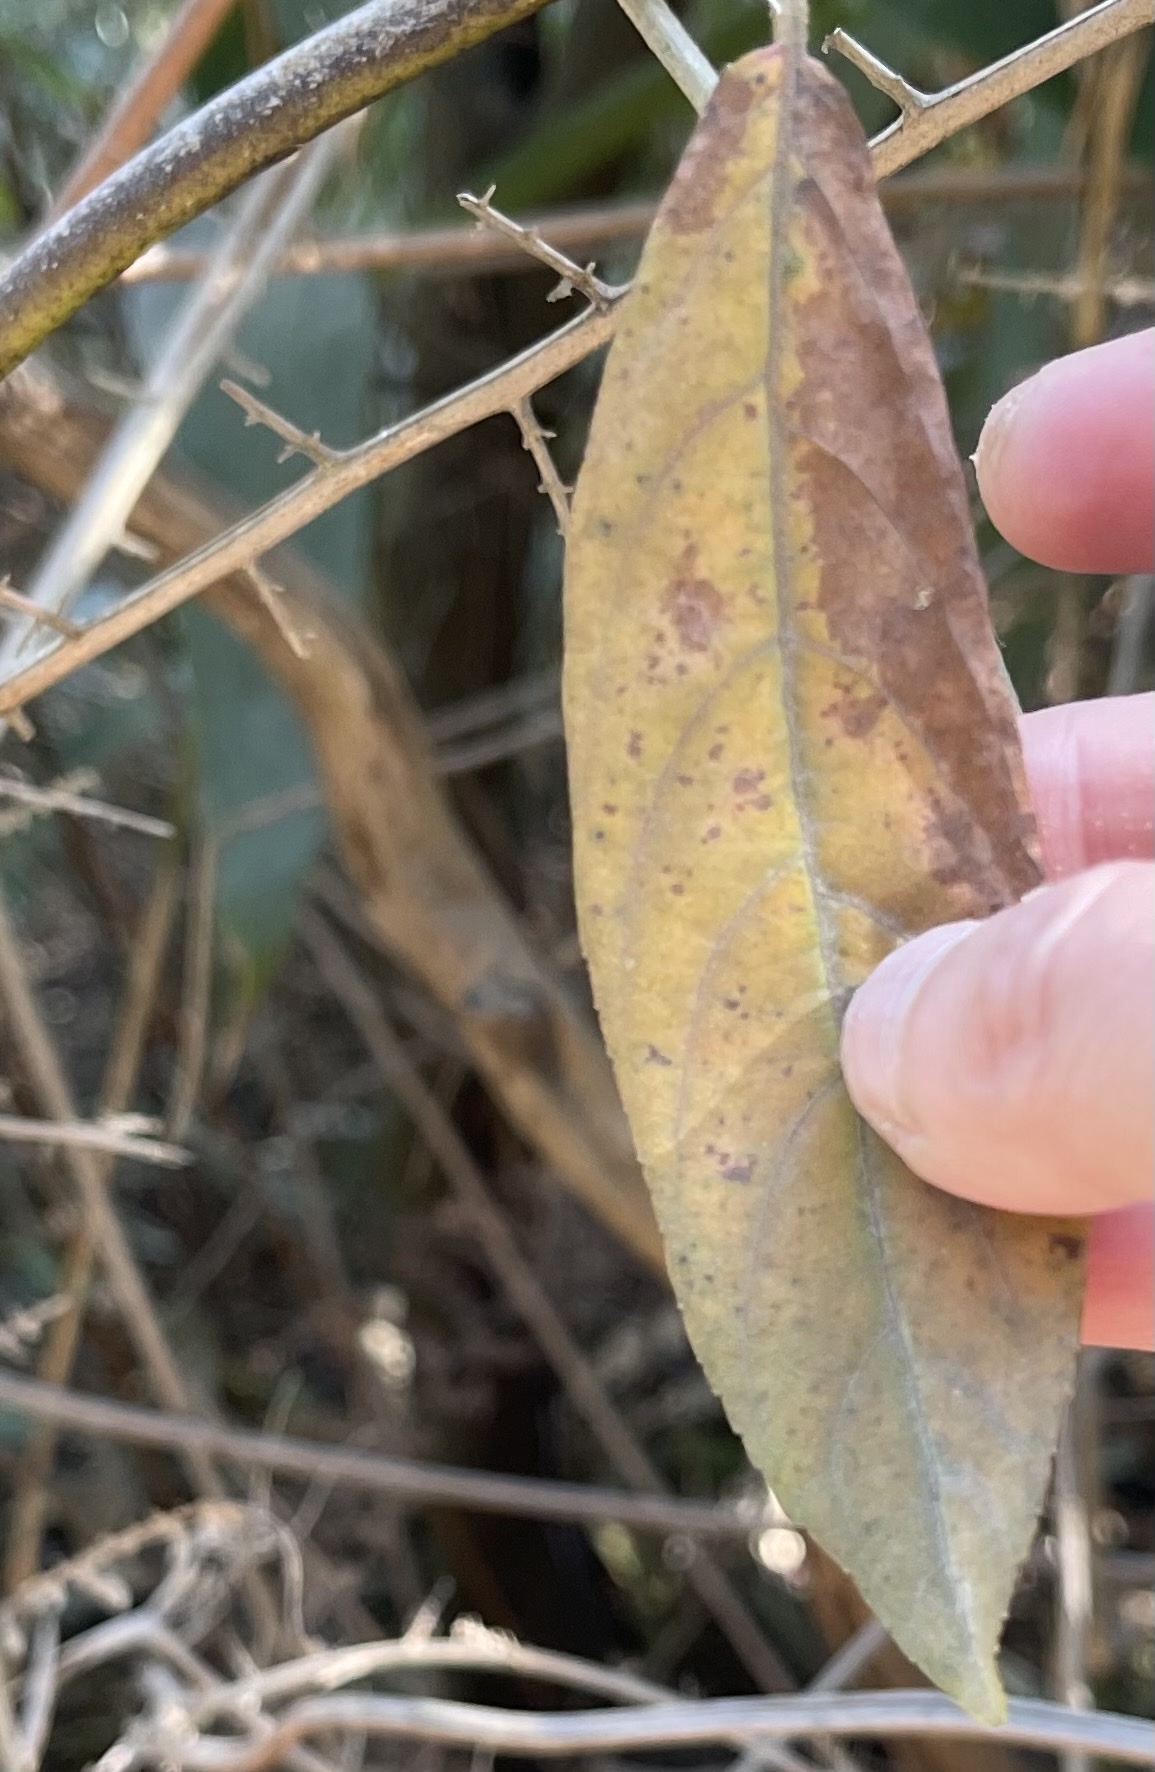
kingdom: Plantae
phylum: Tracheophyta
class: Magnoliopsida
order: Lamiales
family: Lamiaceae
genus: Callicarpa
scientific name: Callicarpa nudiflora
